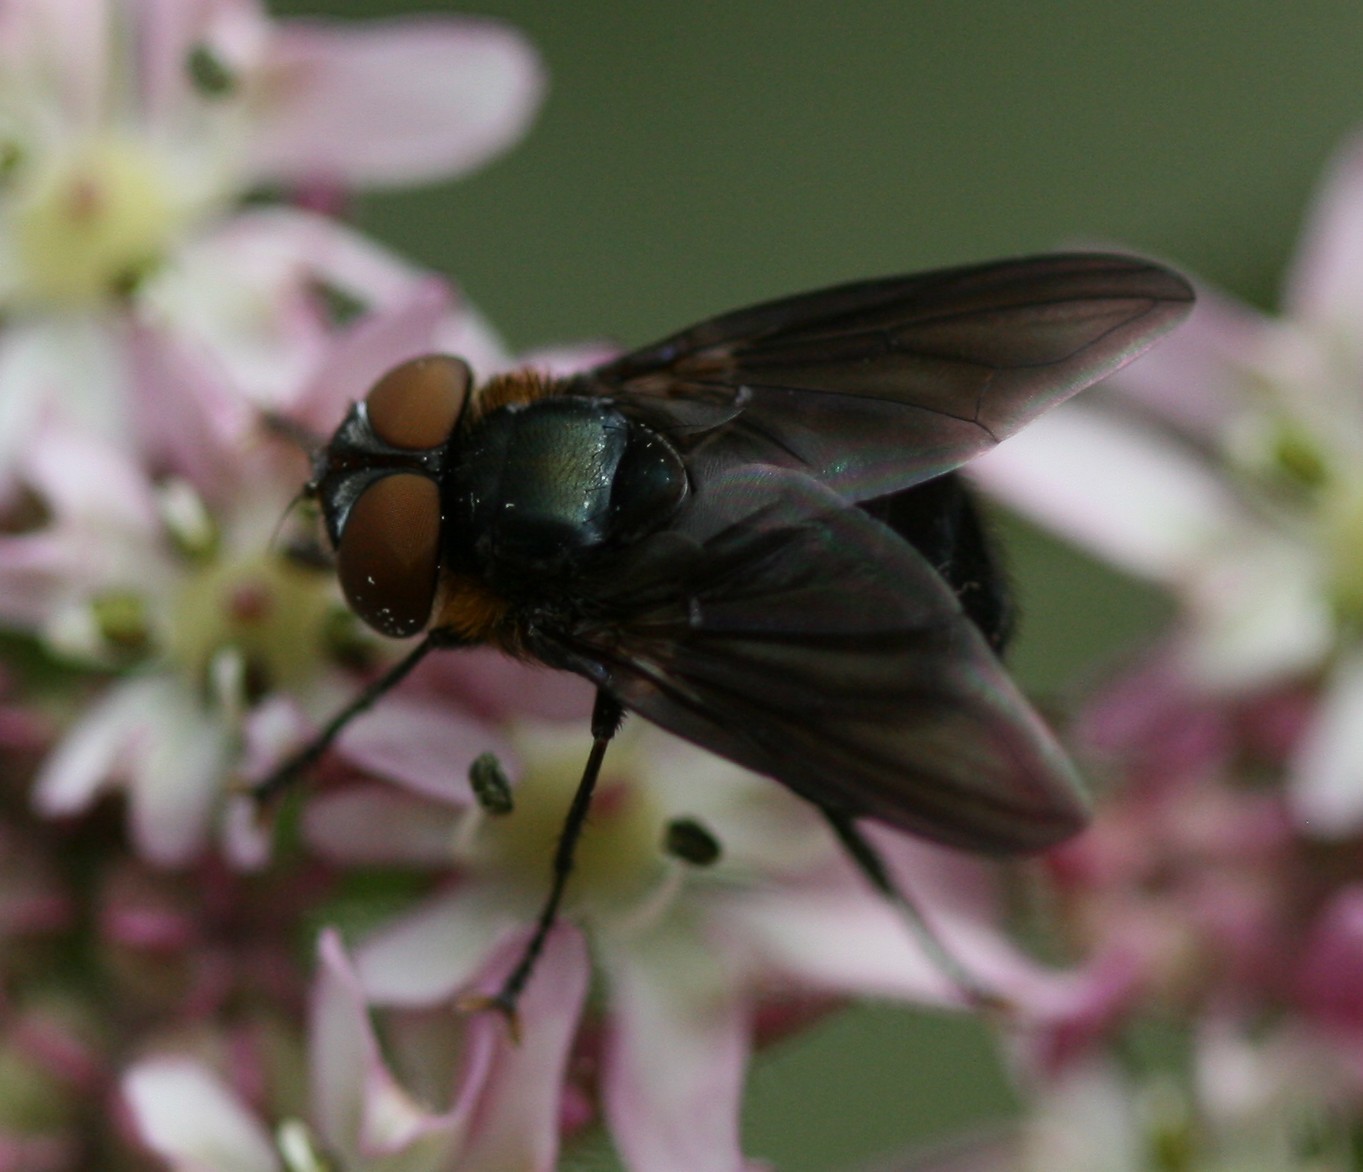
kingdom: Animalia
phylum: Arthropoda
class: Insecta
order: Diptera
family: Tachinidae
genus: Phasia
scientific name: Phasia hemiptera
